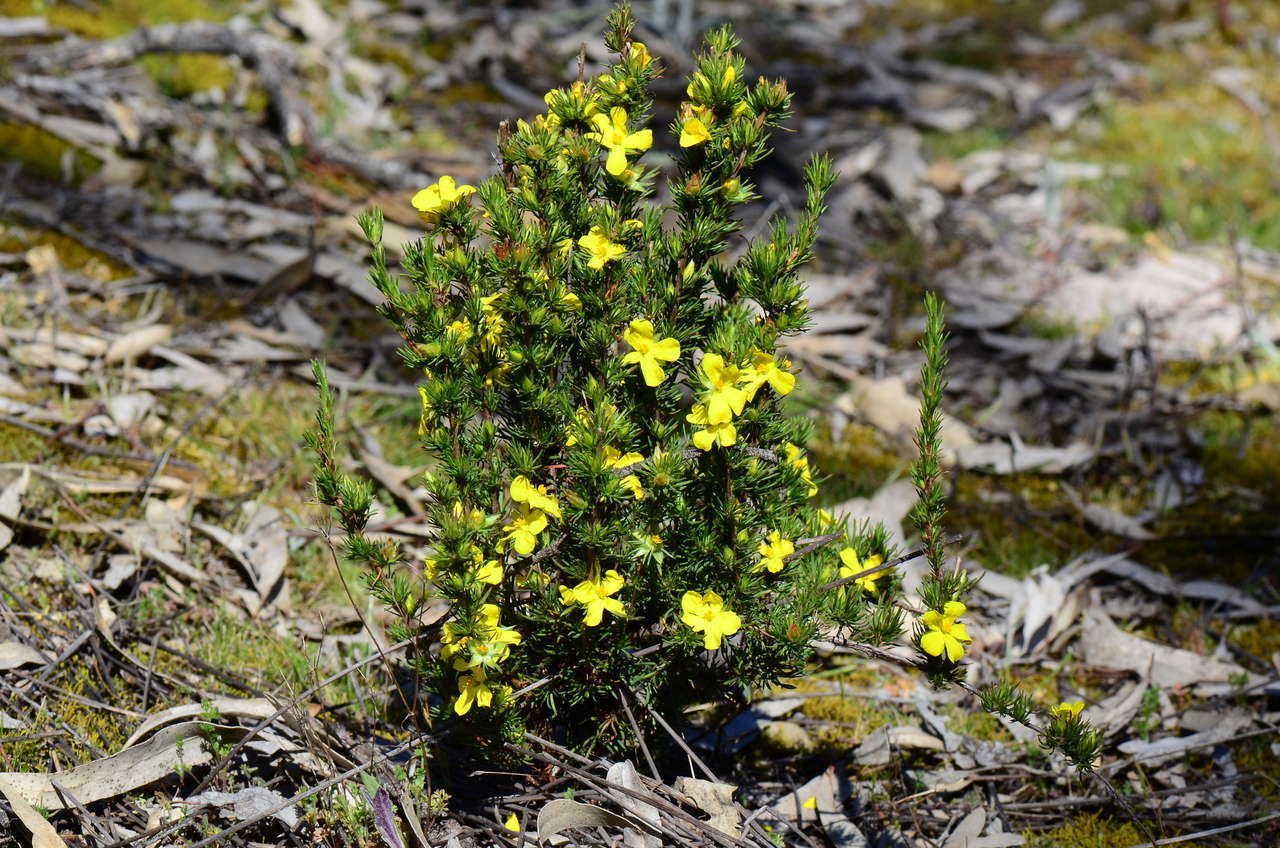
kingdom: Plantae
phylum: Tracheophyta
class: Magnoliopsida
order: Dilleniales
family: Dilleniaceae
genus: Hibbertia
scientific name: Hibbertia prostrata
